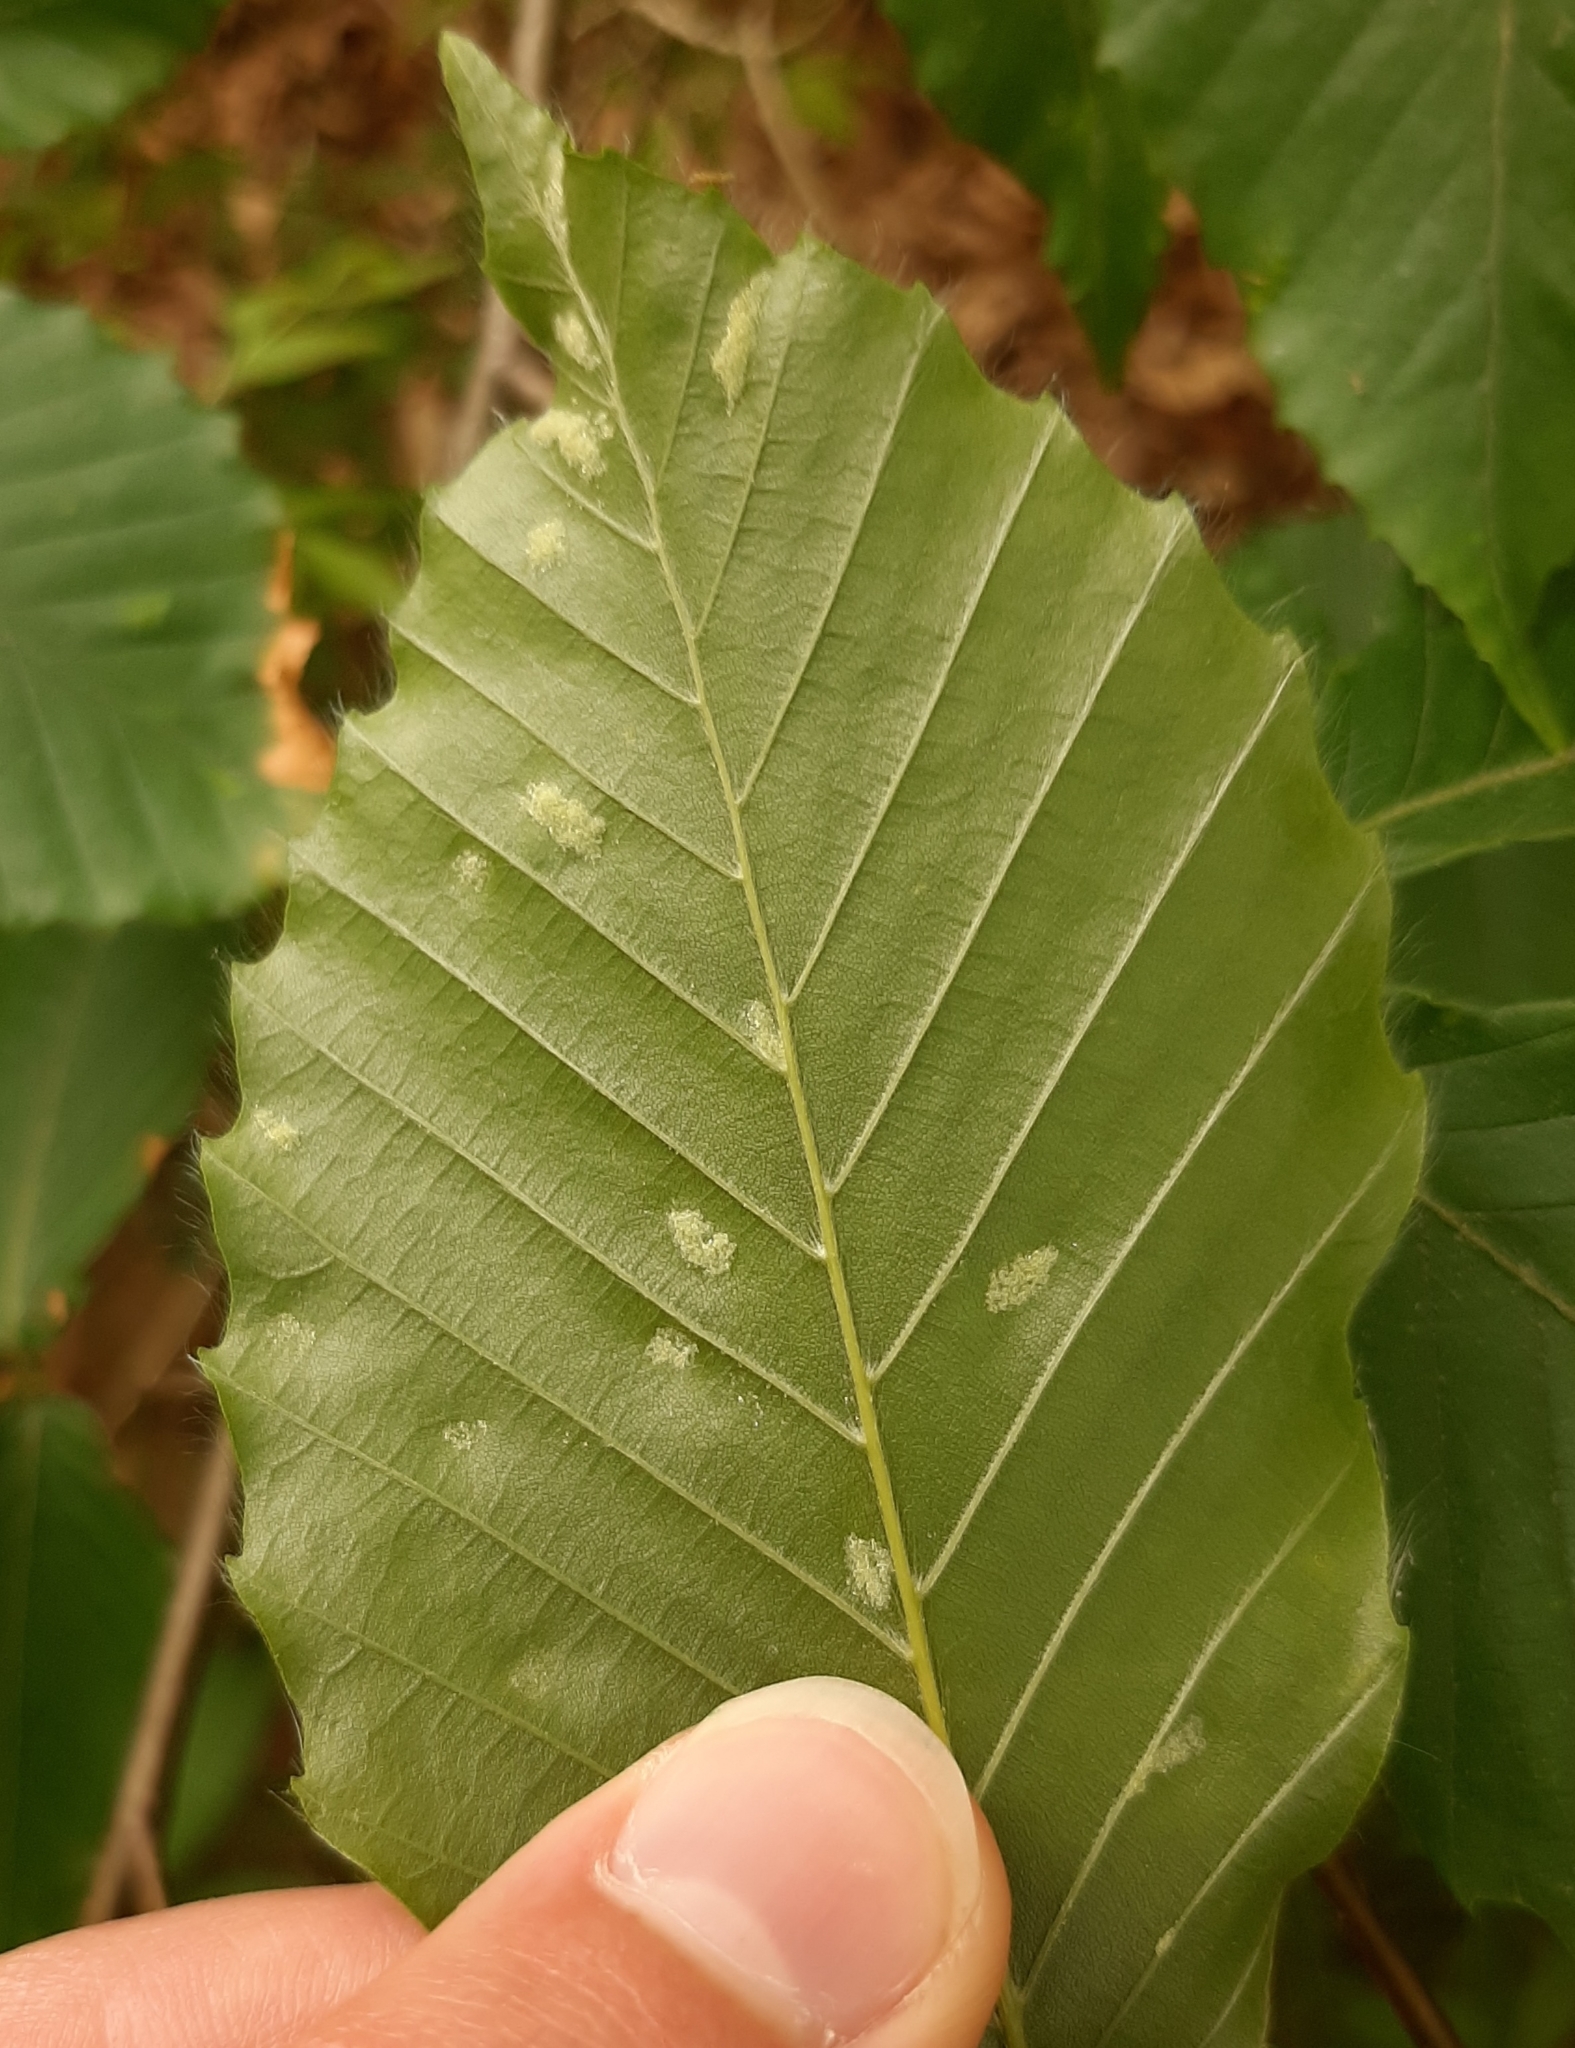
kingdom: Animalia
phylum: Arthropoda
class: Arachnida
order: Trombidiformes
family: Eriophyidae
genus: Acalitus
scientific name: Acalitus
